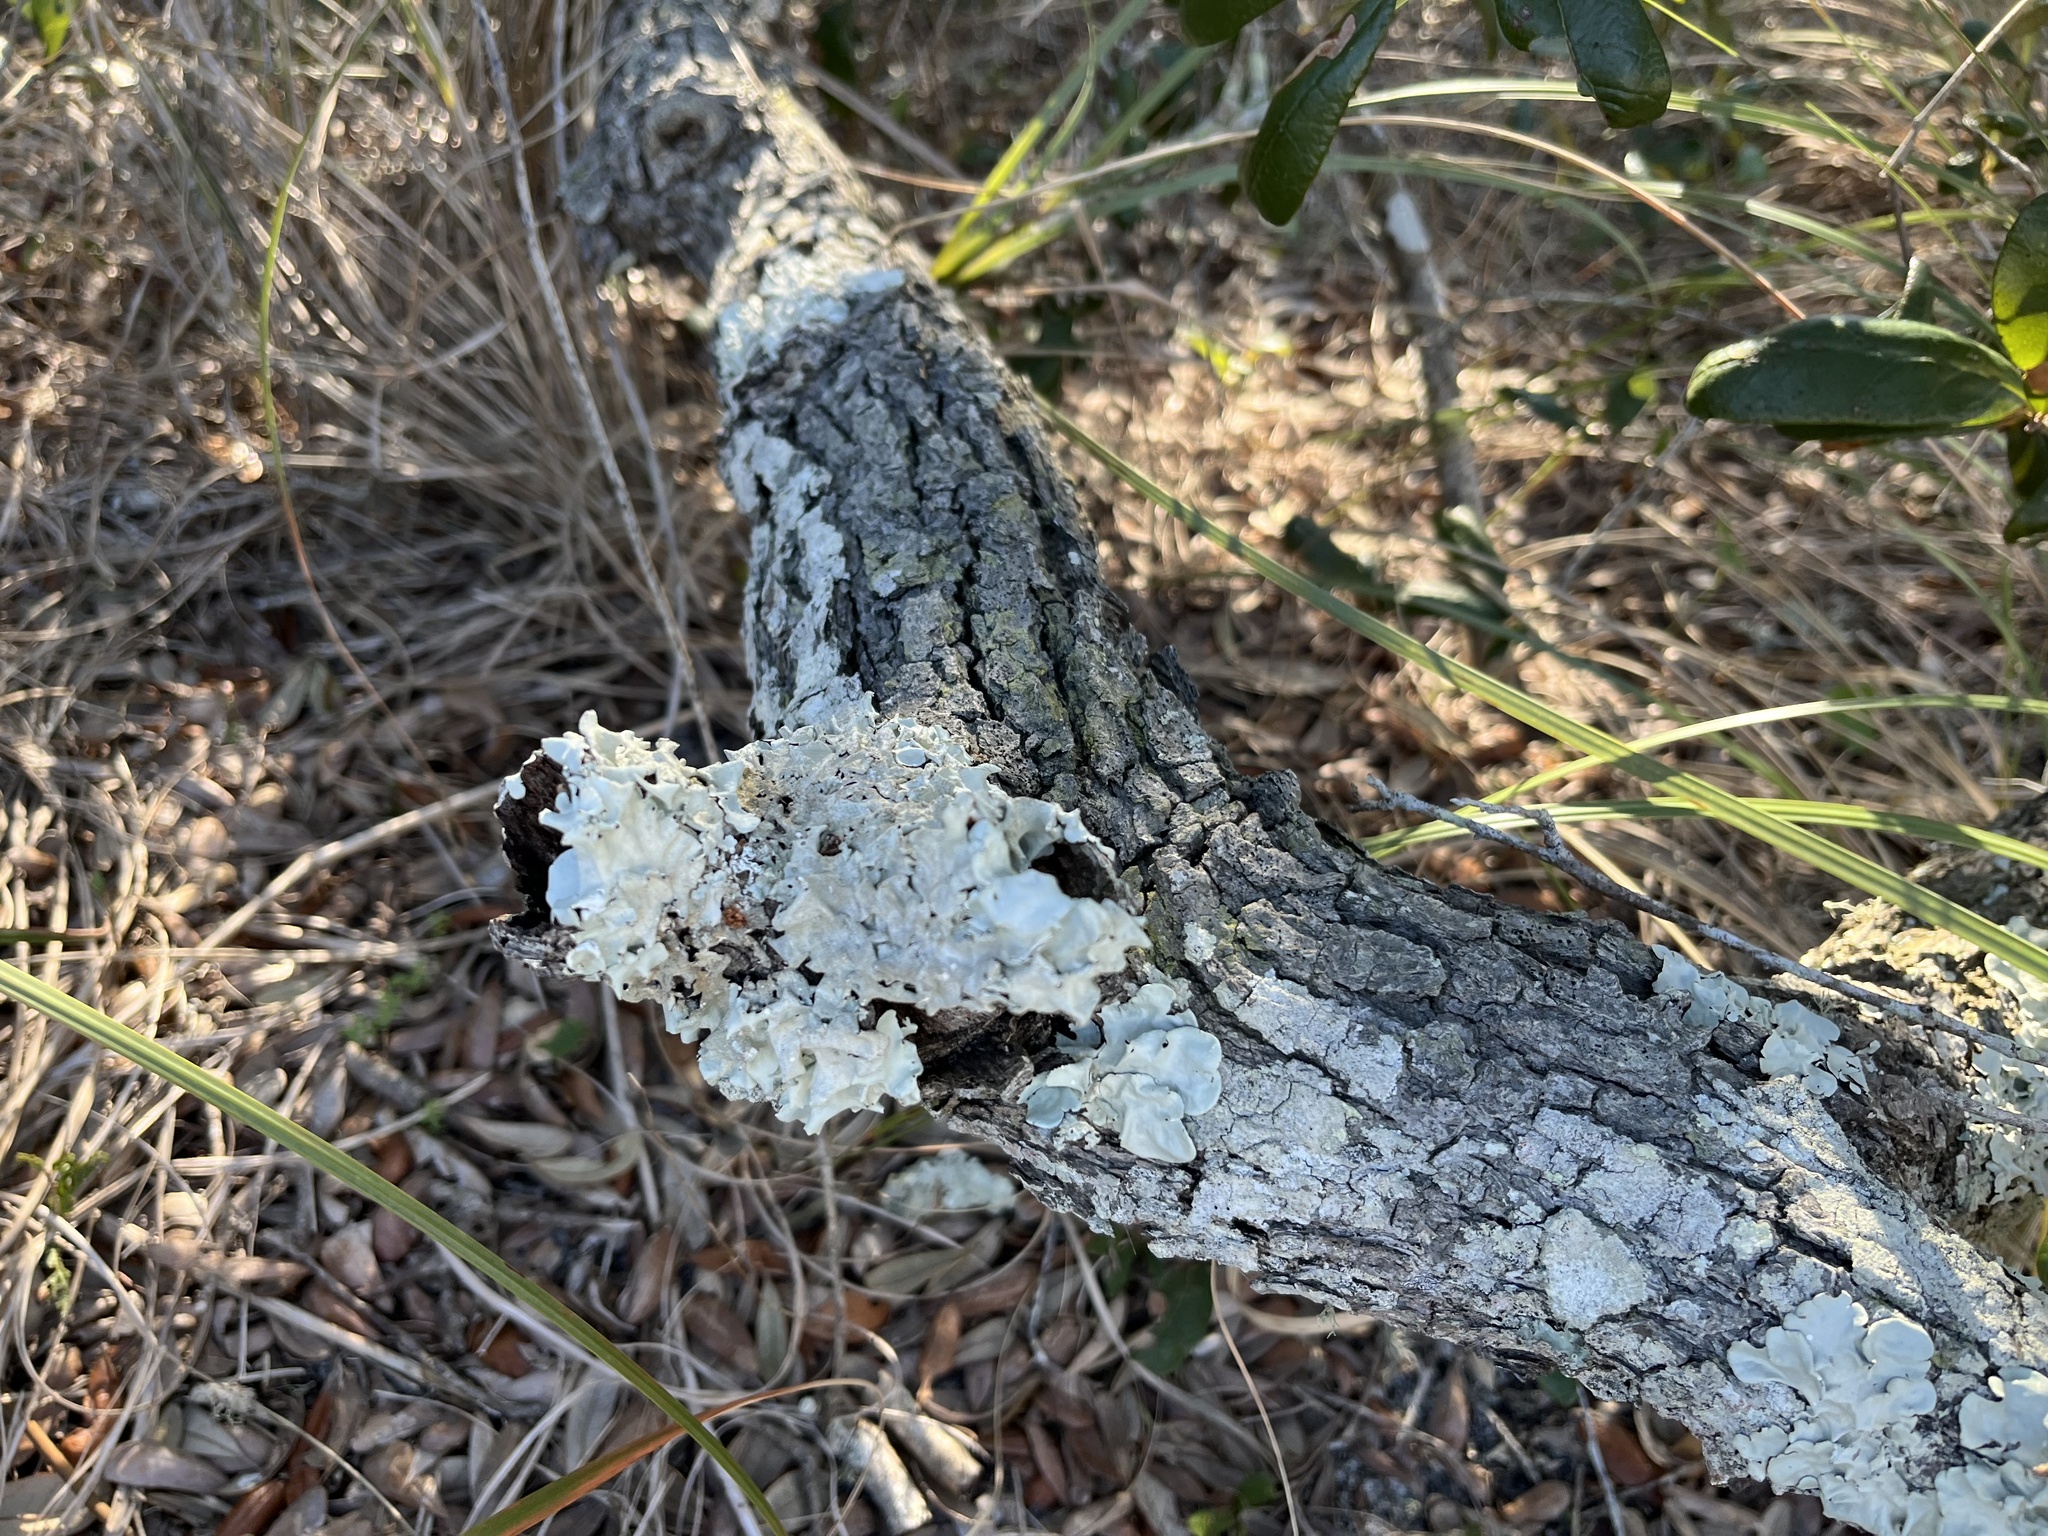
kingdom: Fungi
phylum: Ascomycota
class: Lecanoromycetes
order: Lecanorales
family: Parmeliaceae
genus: Parmotrema
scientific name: Parmotrema tinctorum
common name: Old gray ruffles
